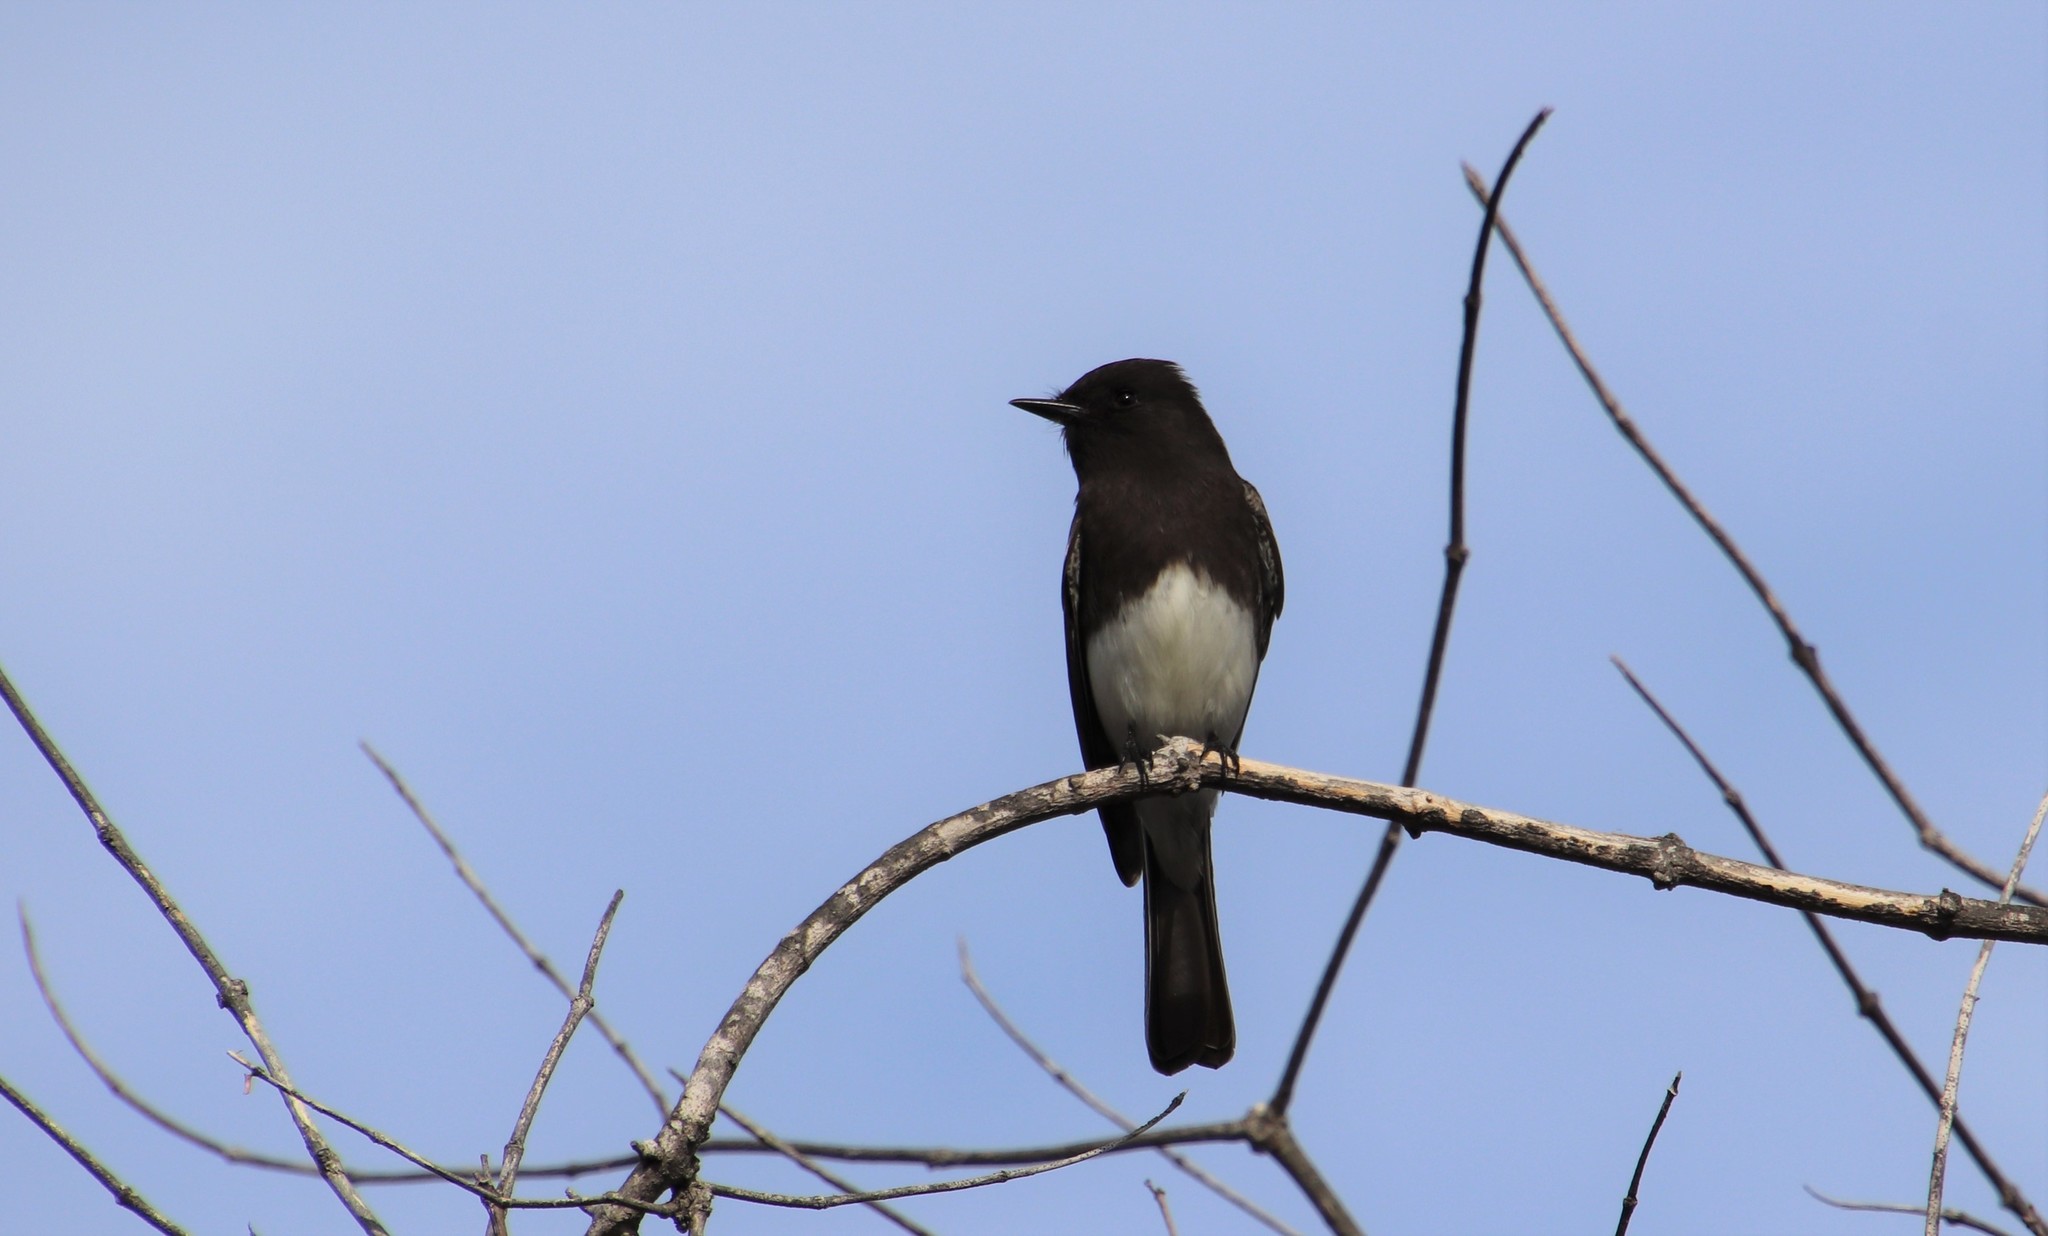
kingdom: Animalia
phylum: Chordata
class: Aves
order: Passeriformes
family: Tyrannidae
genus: Sayornis
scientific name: Sayornis nigricans
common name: Black phoebe
